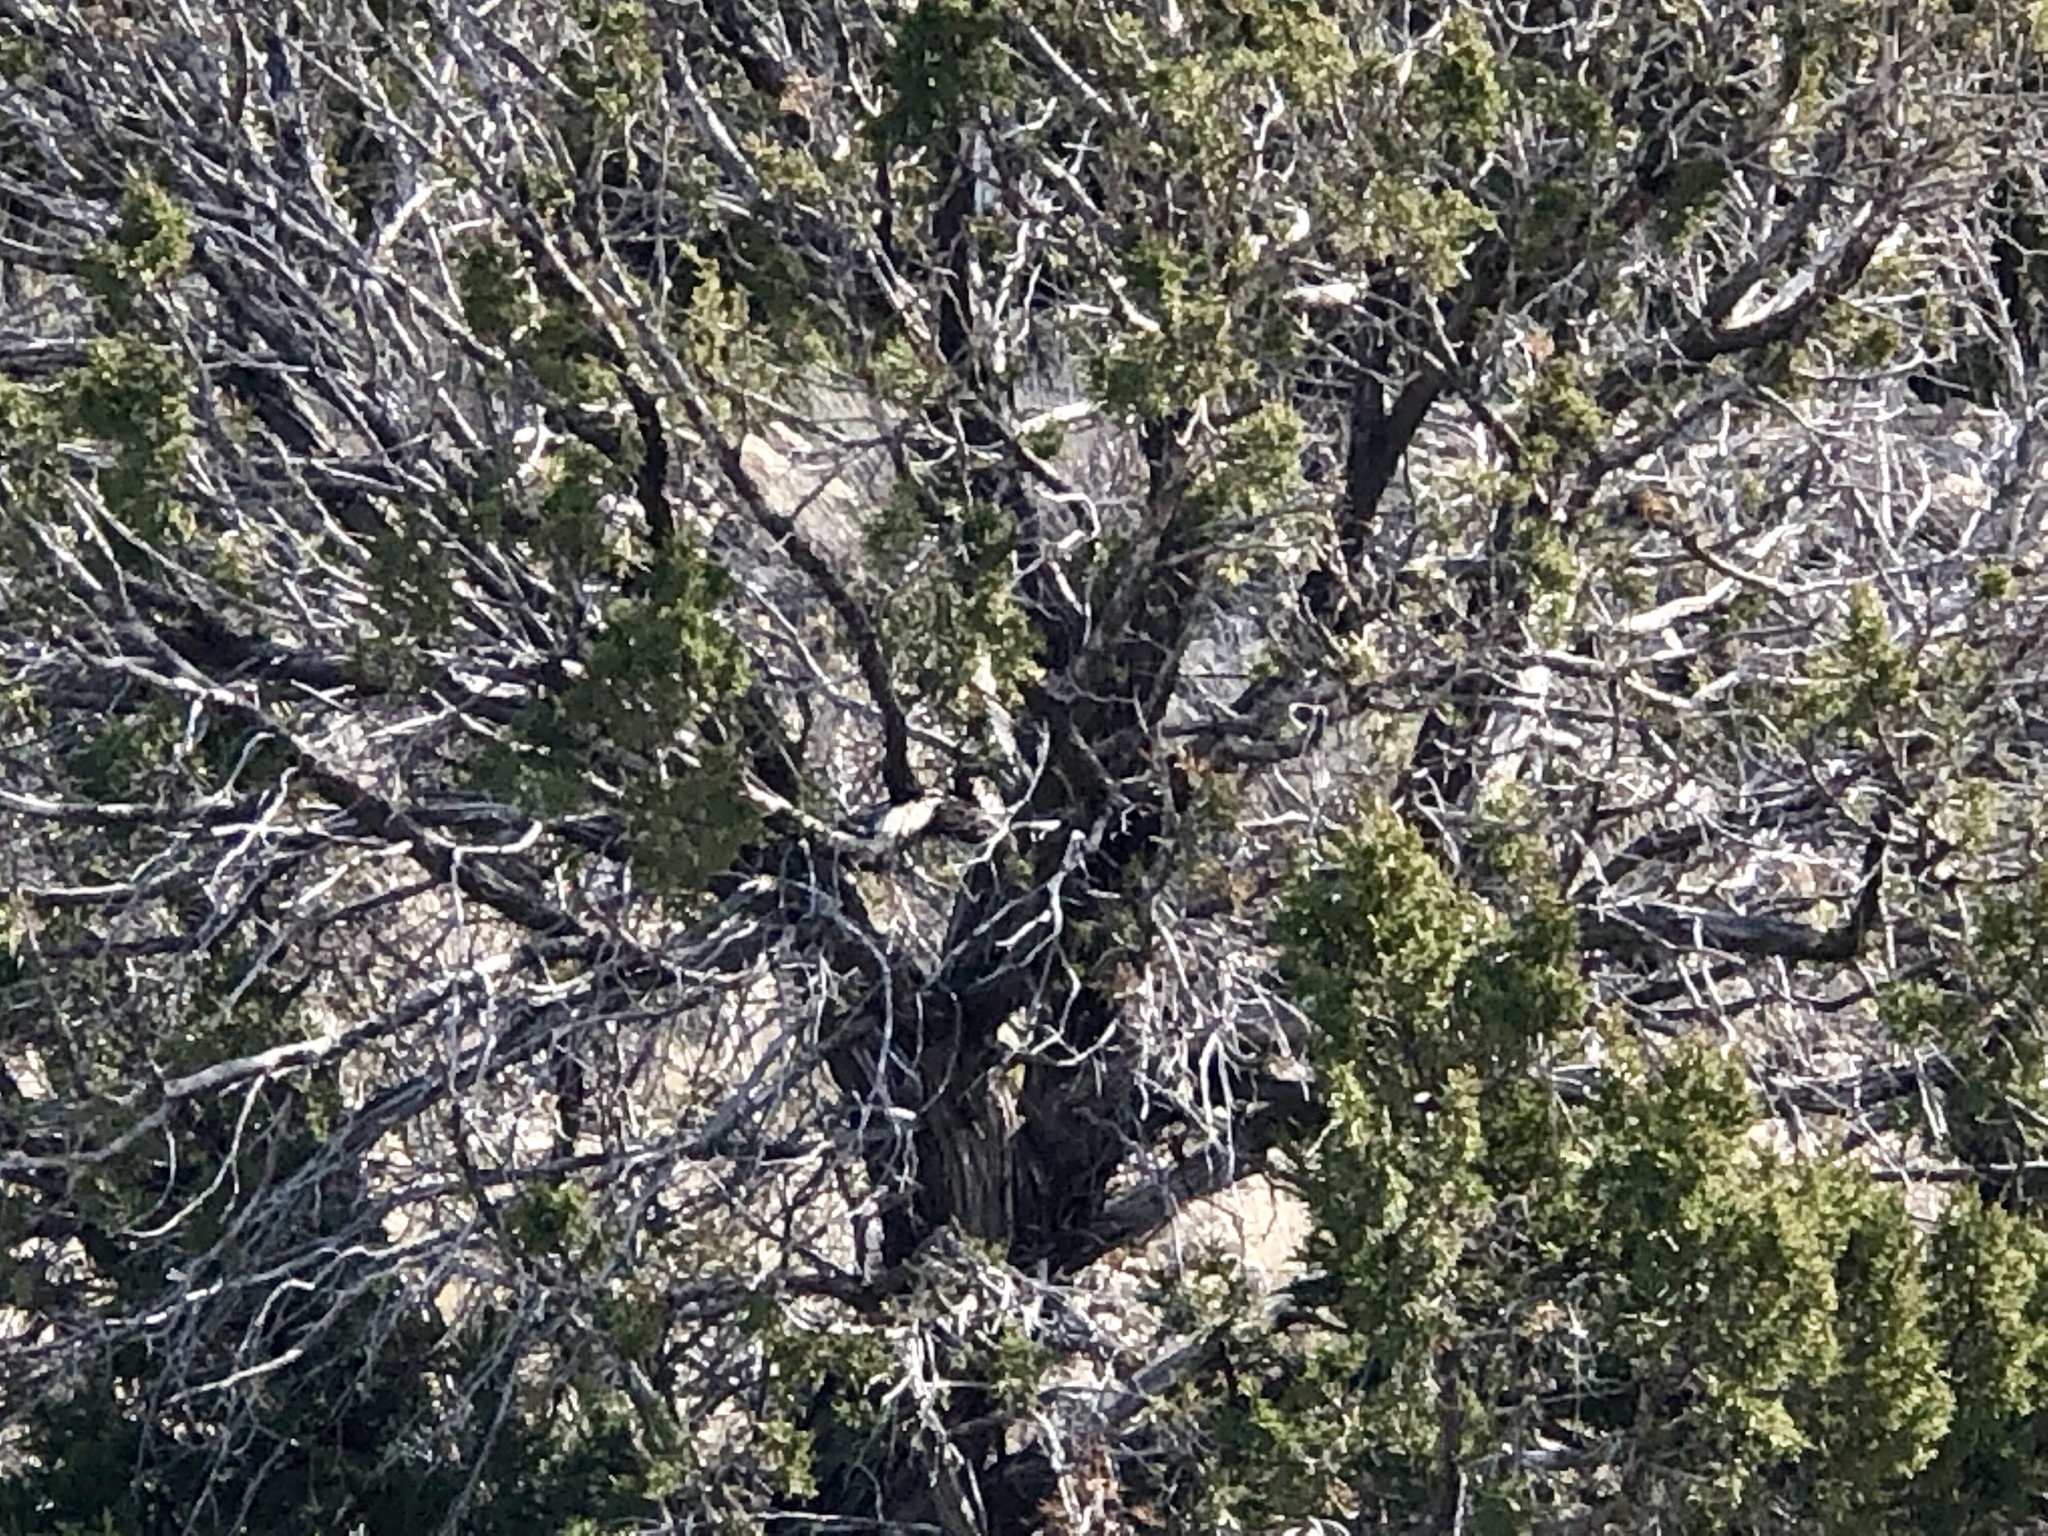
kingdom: Plantae
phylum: Tracheophyta
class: Pinopsida
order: Pinales
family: Cupressaceae
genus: Juniperus
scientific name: Juniperus monosperma
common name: One-seed juniper
